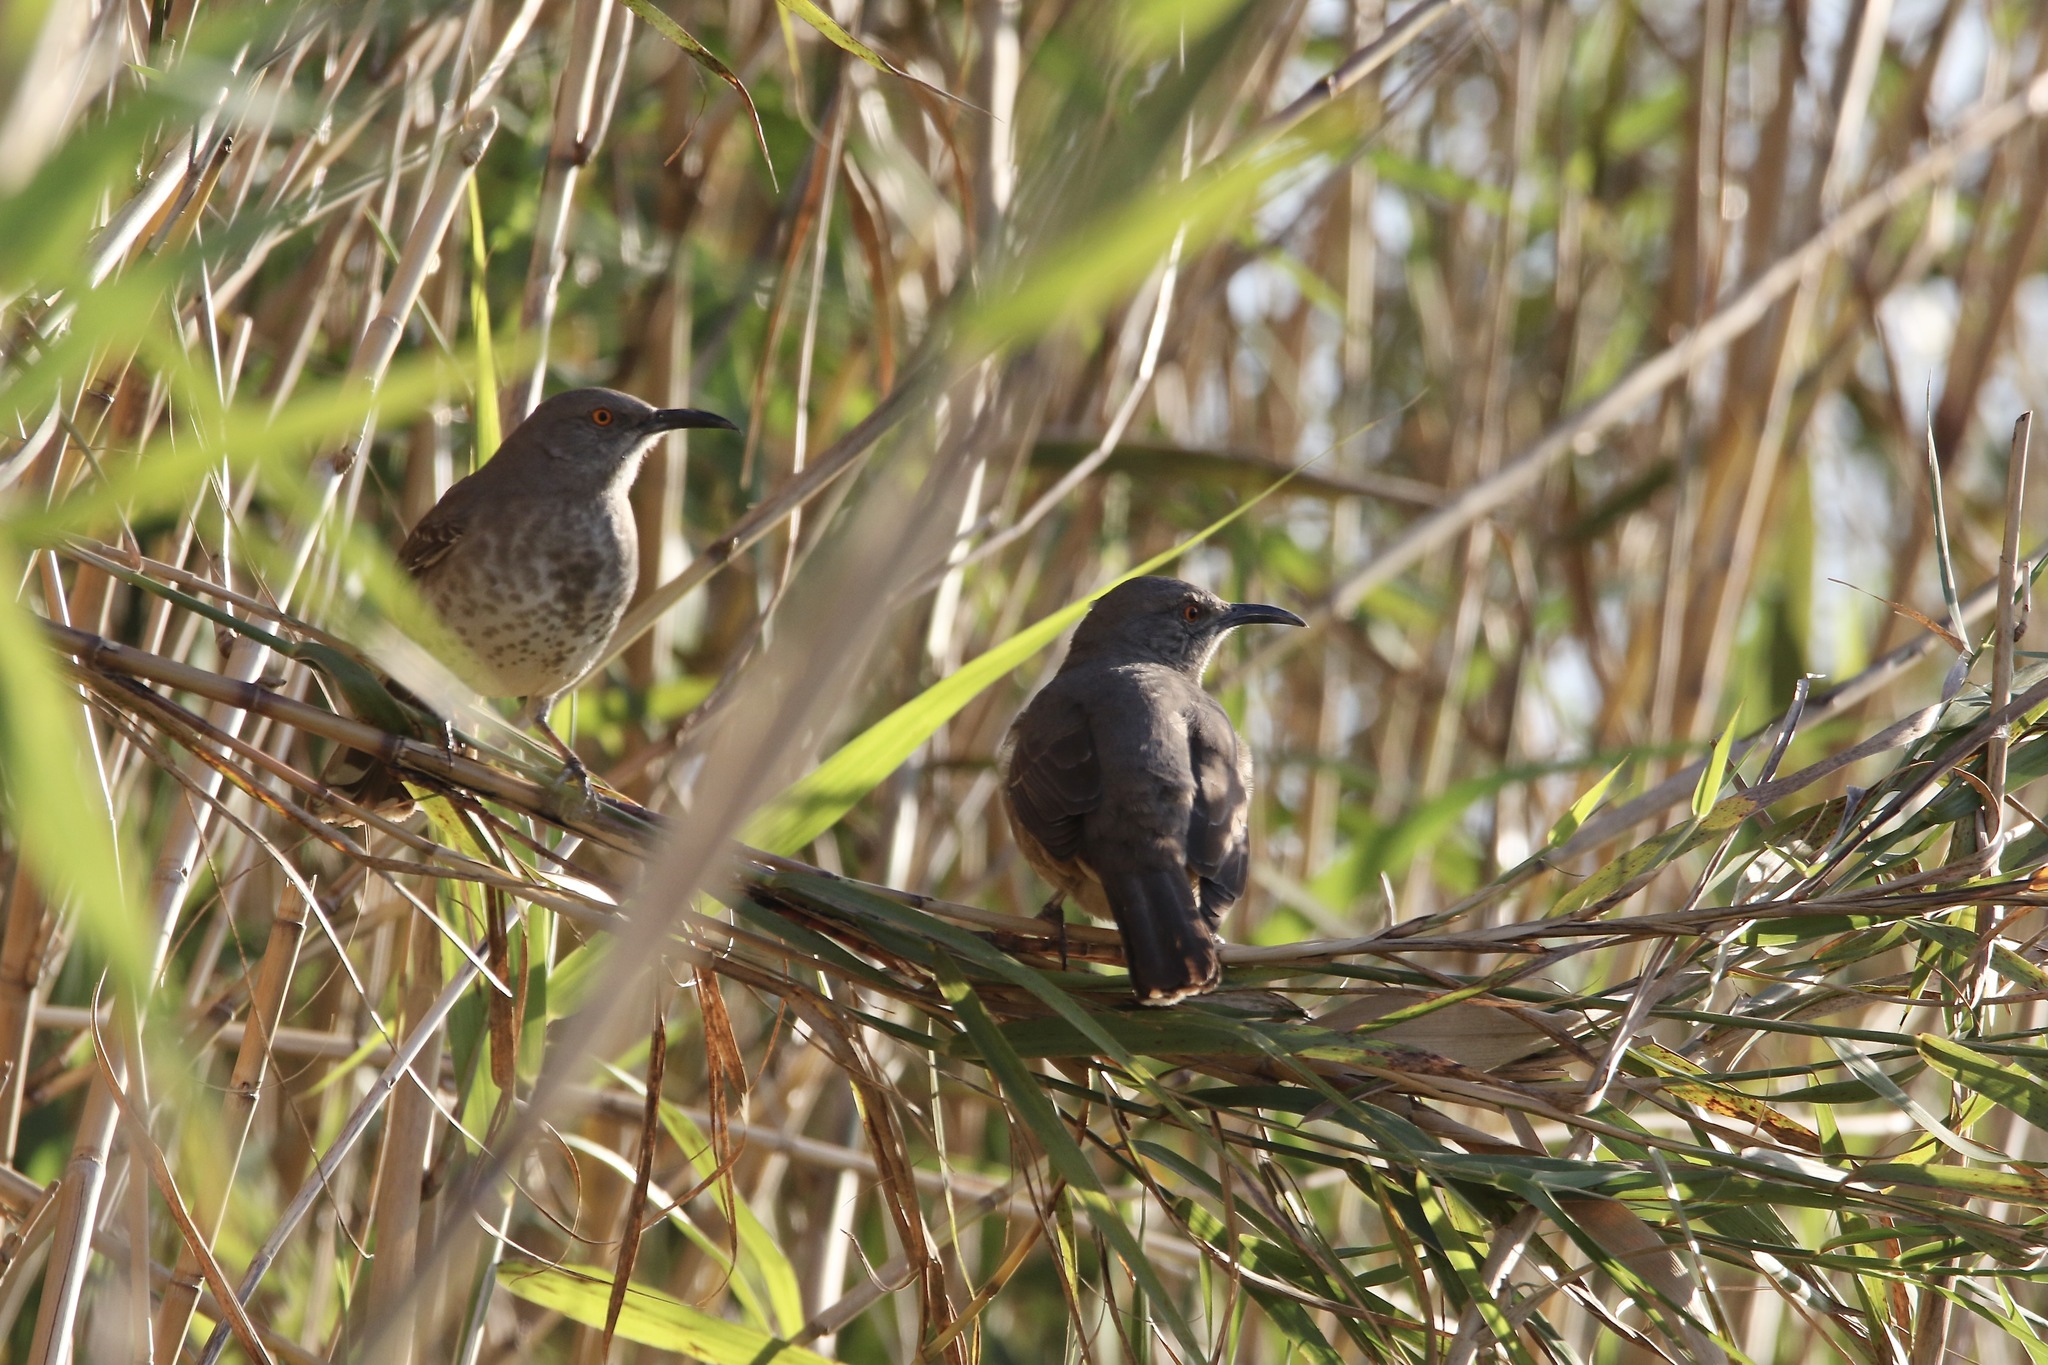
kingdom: Animalia
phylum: Chordata
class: Aves
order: Passeriformes
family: Mimidae
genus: Toxostoma
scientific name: Toxostoma curvirostre
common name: Curve-billed thrasher
